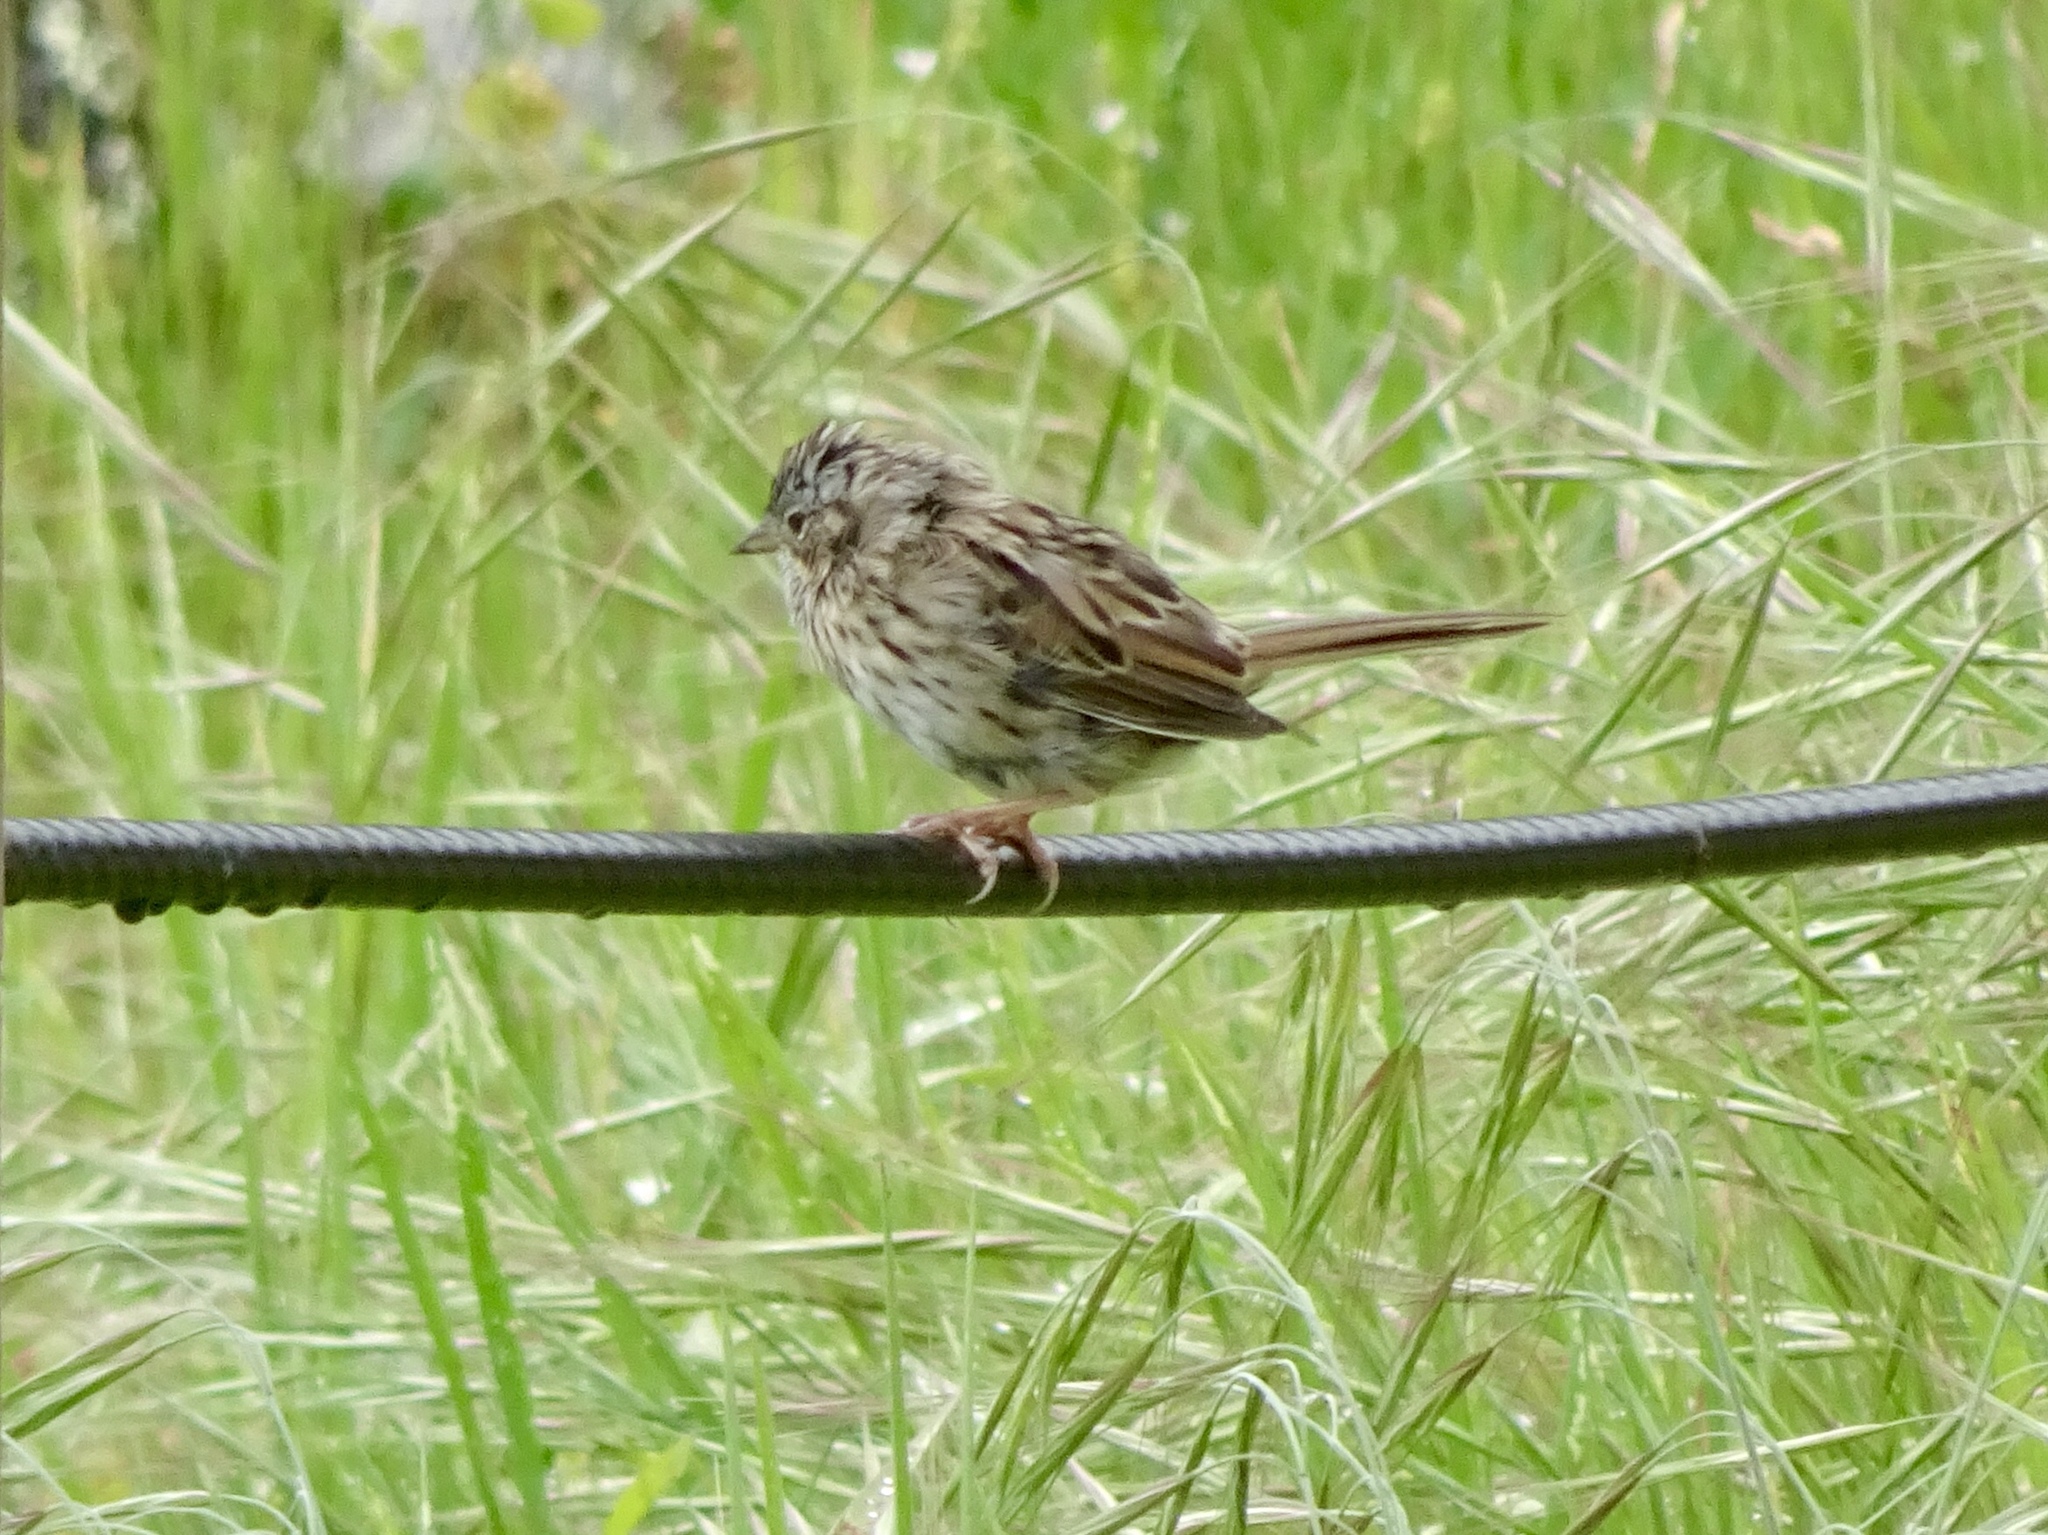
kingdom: Animalia
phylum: Chordata
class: Aves
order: Passeriformes
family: Passerellidae
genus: Melospiza
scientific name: Melospiza lincolnii
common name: Lincoln's sparrow
